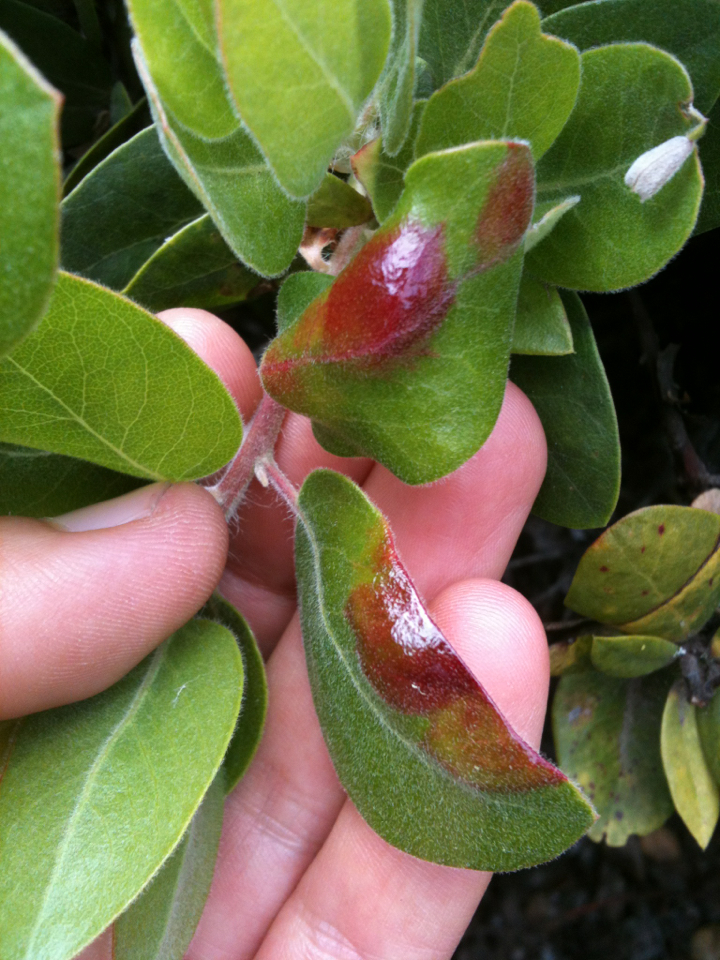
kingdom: Fungi
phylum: Basidiomycota
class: Exobasidiomycetes
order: Exobasidiales
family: Exobasidiaceae
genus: Exobasidium
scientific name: Exobasidium arctostaphyli
